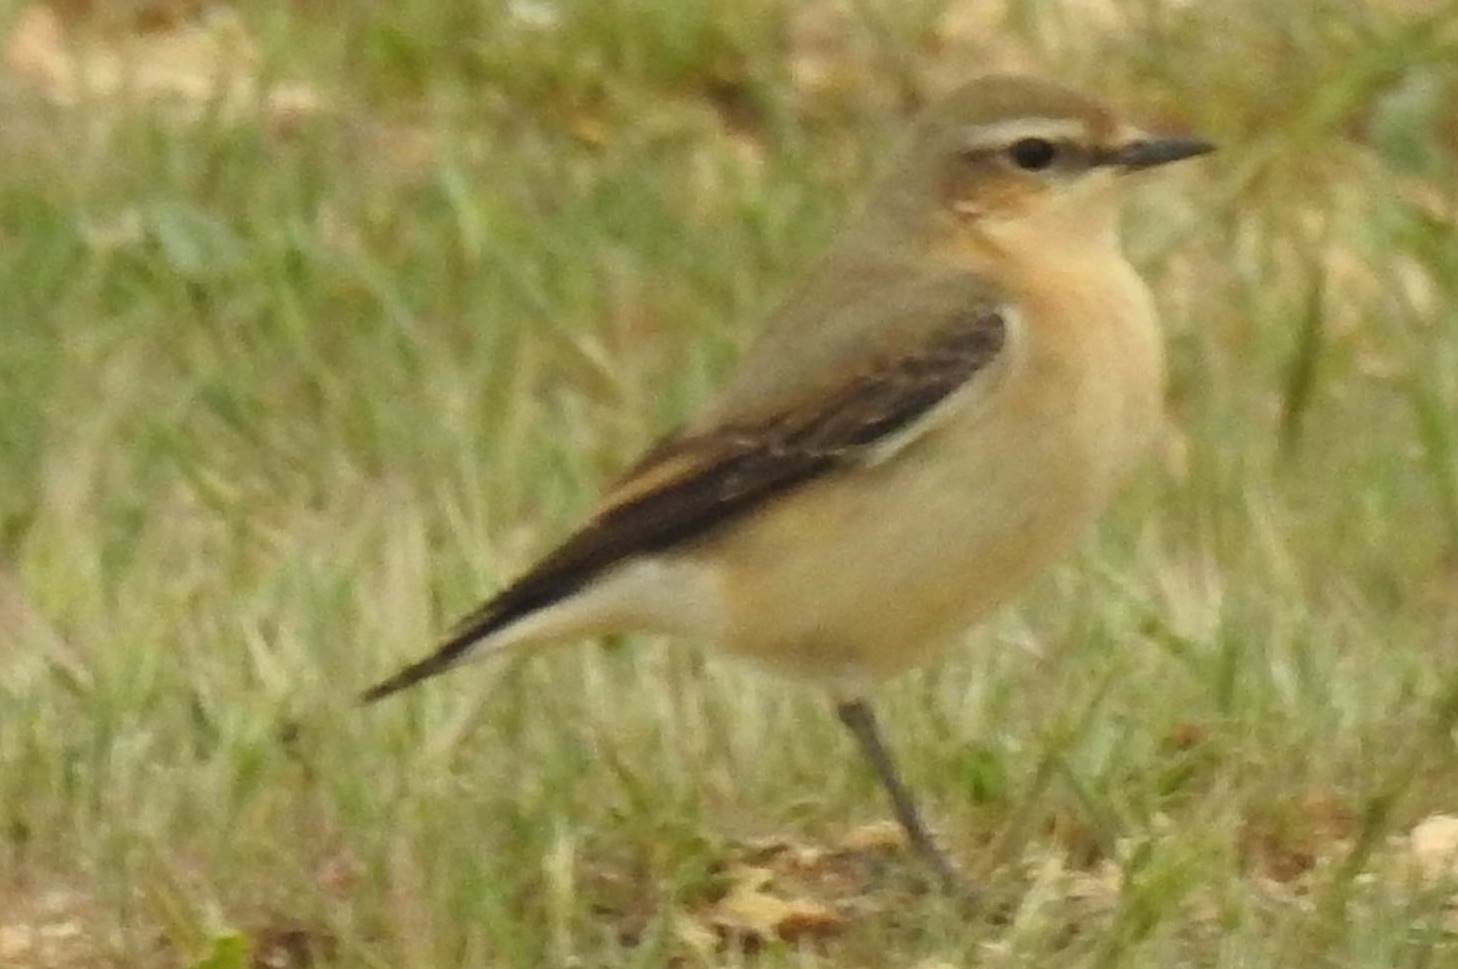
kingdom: Animalia
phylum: Chordata
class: Aves
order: Passeriformes
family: Muscicapidae
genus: Oenanthe
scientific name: Oenanthe oenanthe
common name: Northern wheatear
